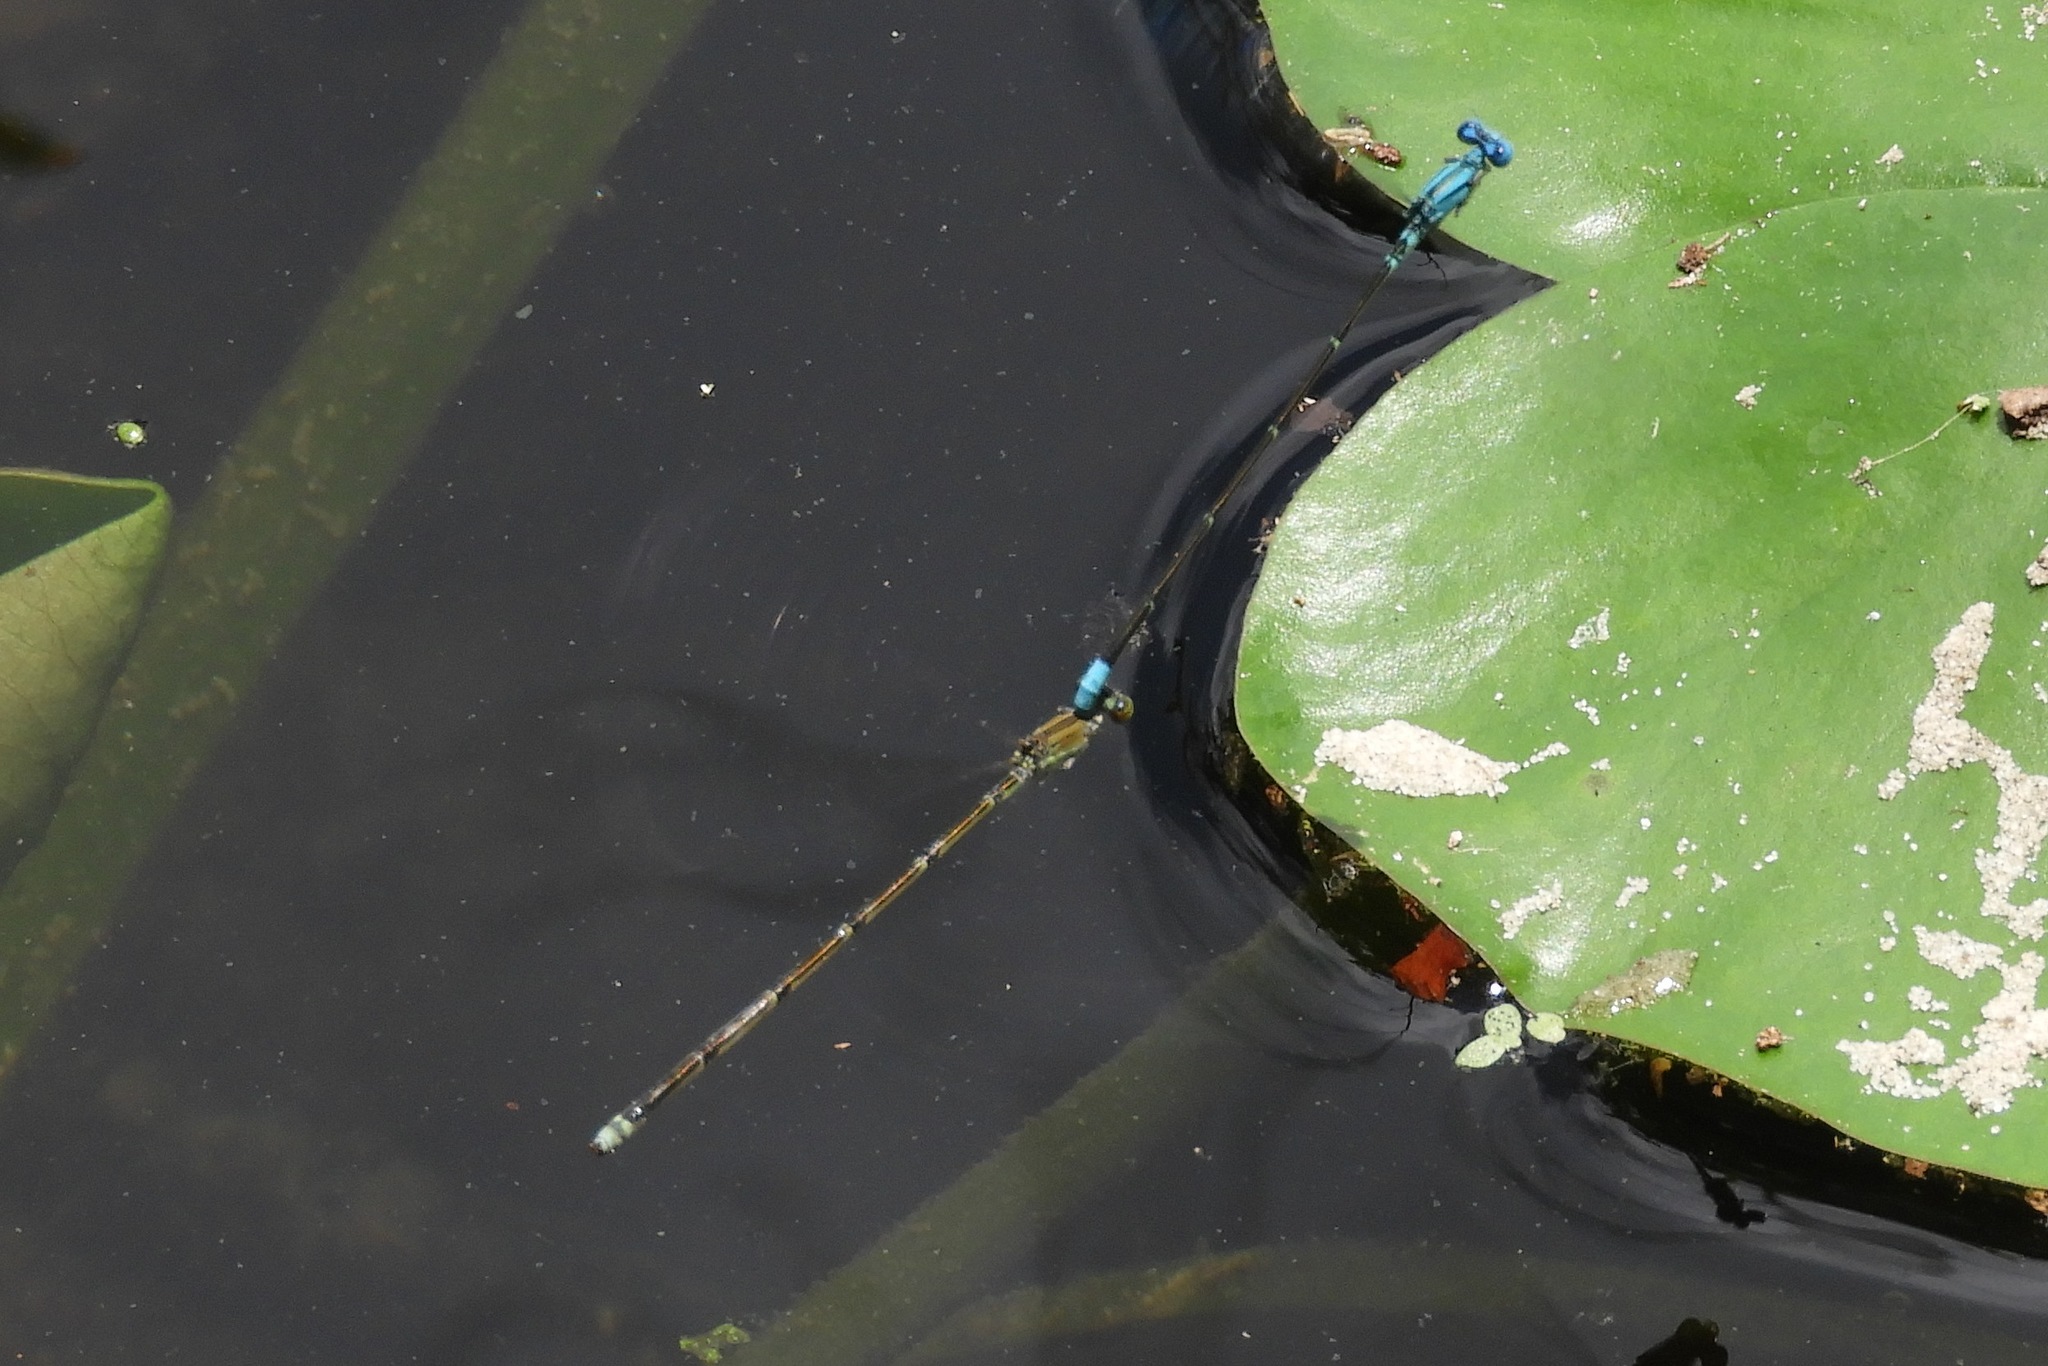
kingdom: Animalia
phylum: Arthropoda
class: Insecta
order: Odonata
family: Coenagrionidae
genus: Enallagma
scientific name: Enallagma pallidum
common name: Pale bluet
